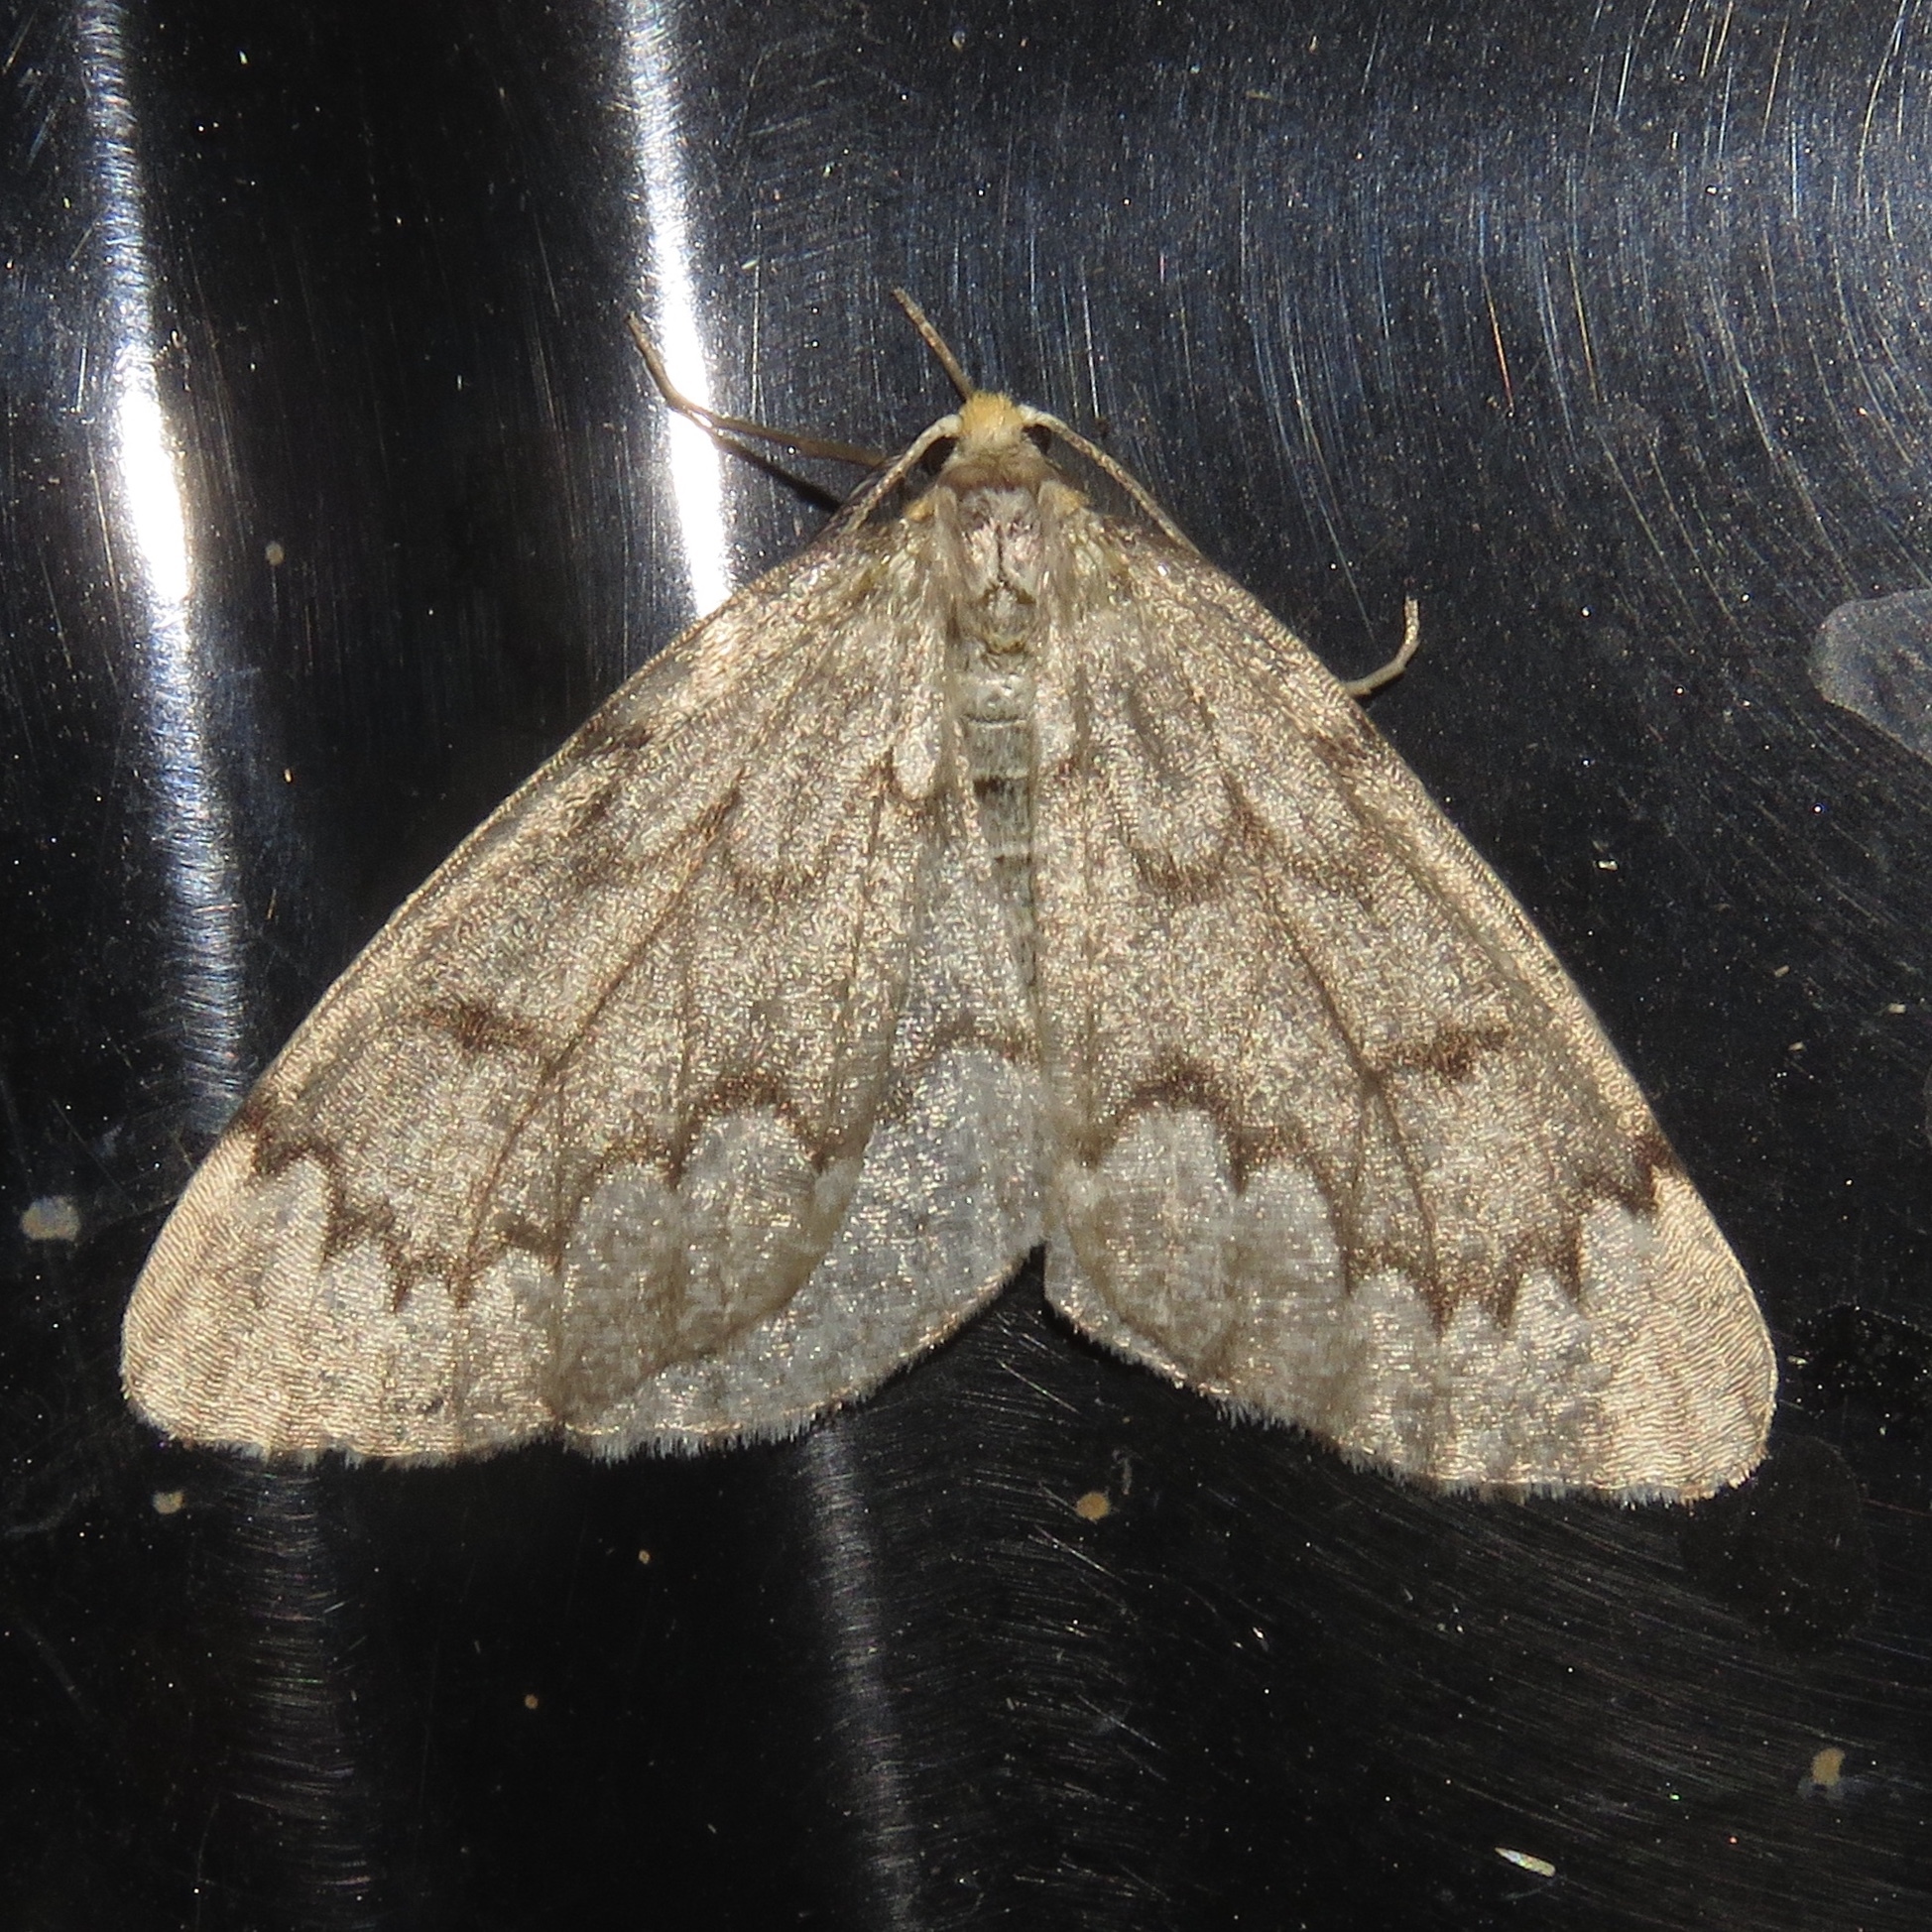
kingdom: Animalia
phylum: Arthropoda
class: Insecta
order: Lepidoptera
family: Geometridae
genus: Nepytia
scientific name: Nepytia canosaria
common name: False hemlock looper
